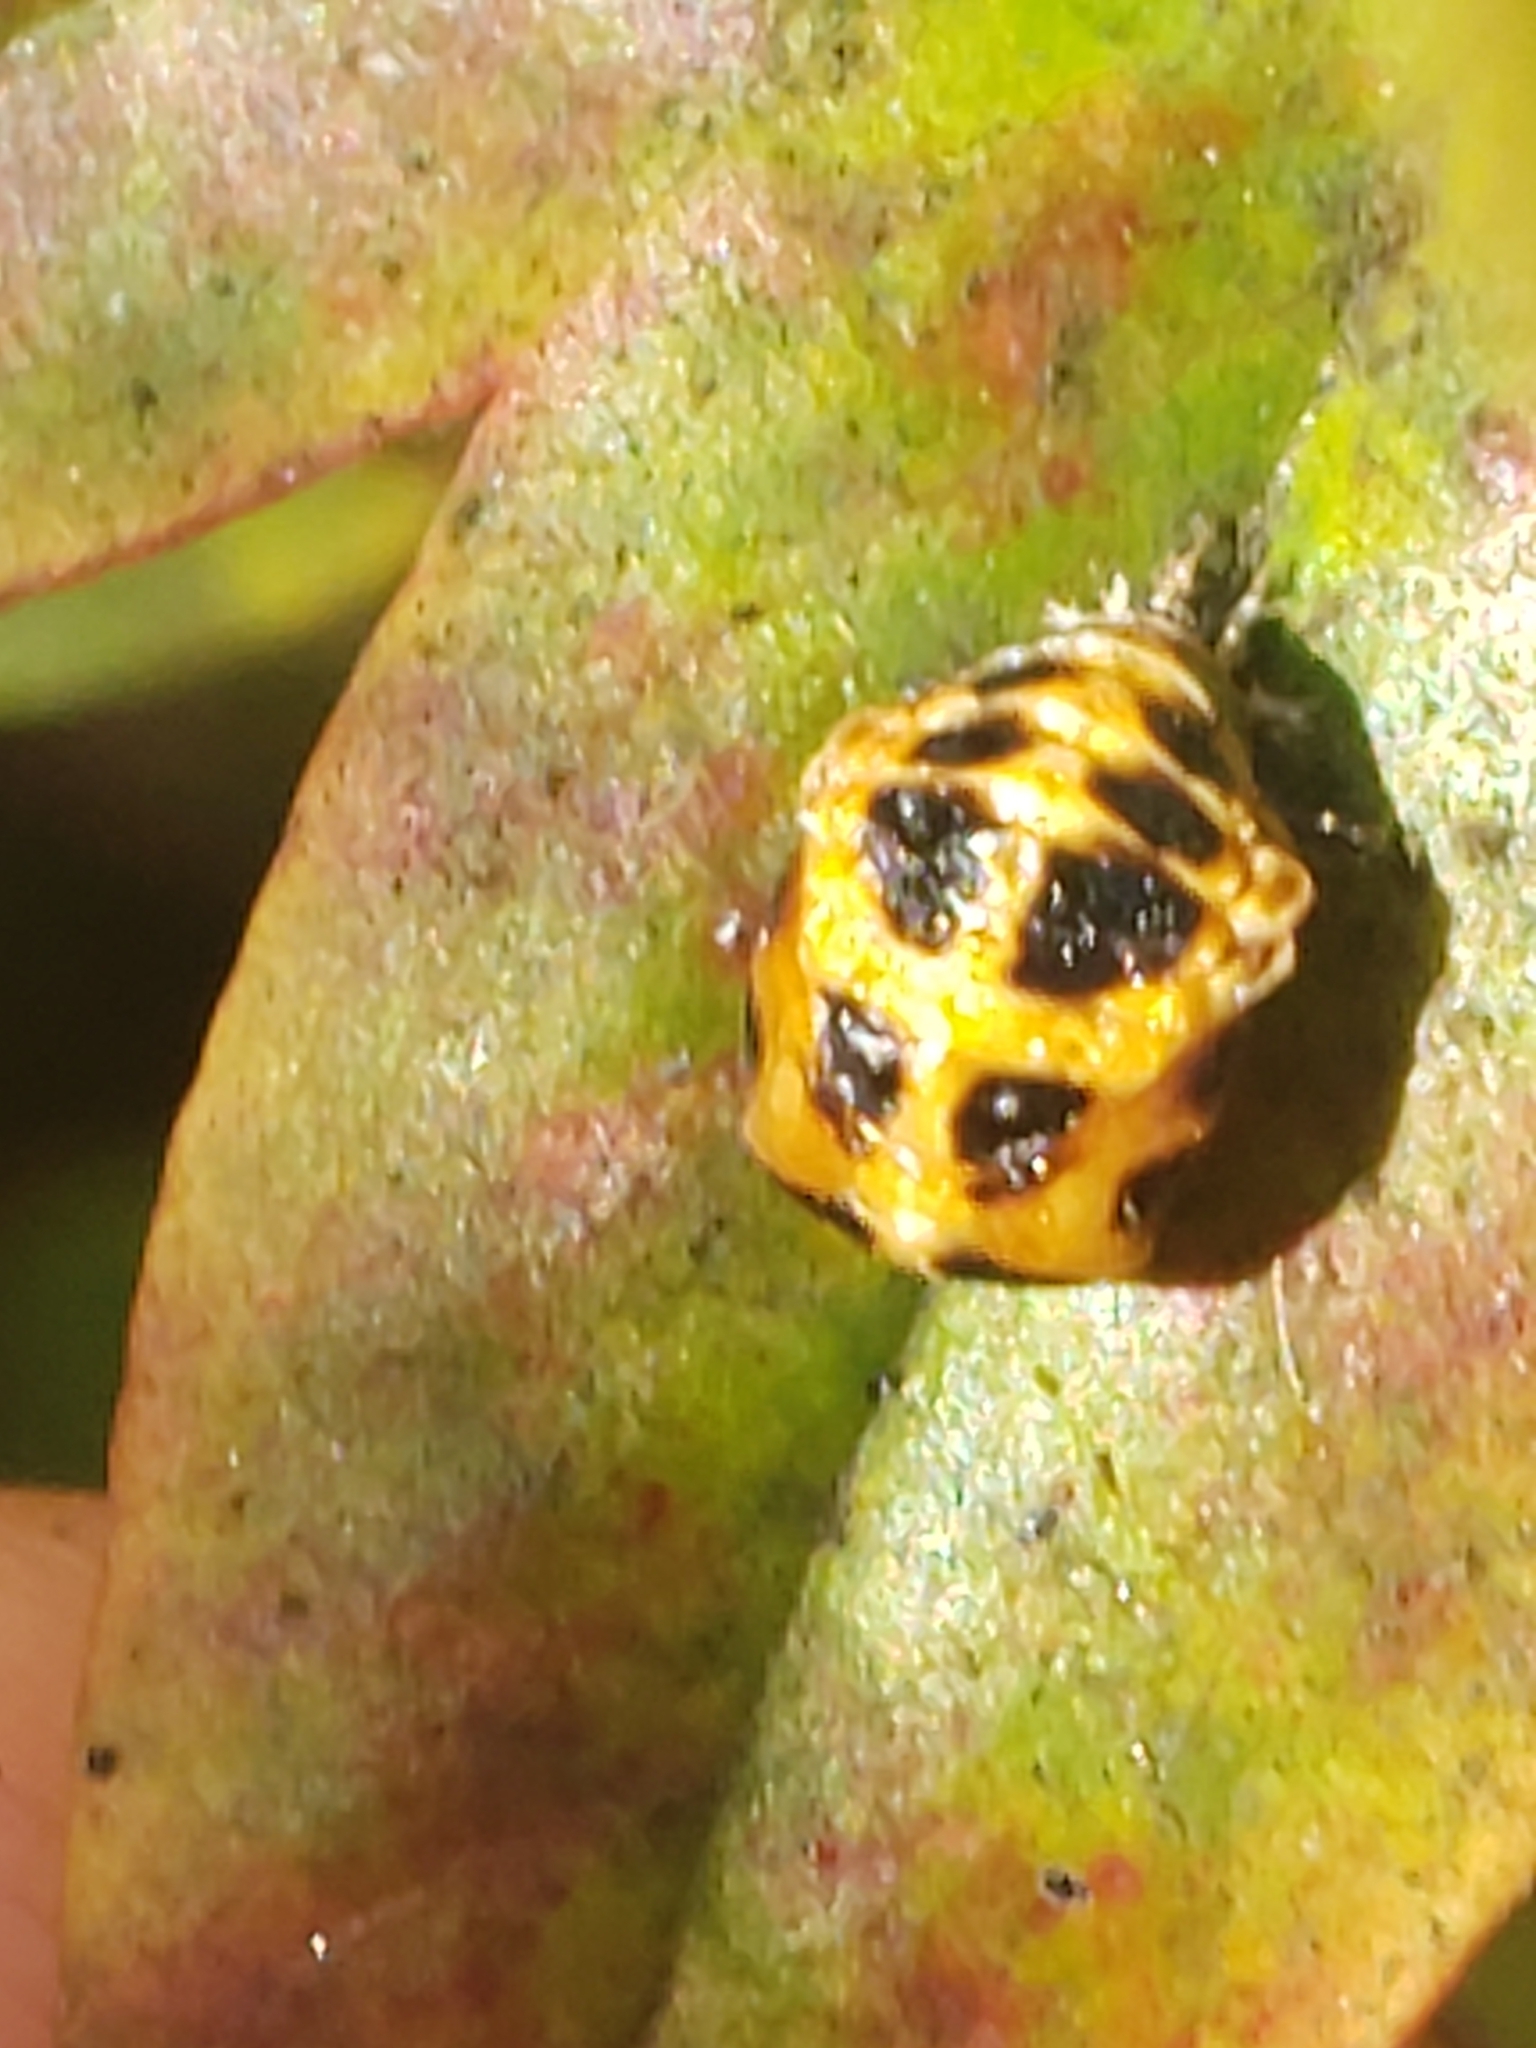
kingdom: Animalia
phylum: Arthropoda
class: Insecta
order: Coleoptera
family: Coccinellidae
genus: Harmonia
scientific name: Harmonia axyridis
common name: Harlequin ladybird
